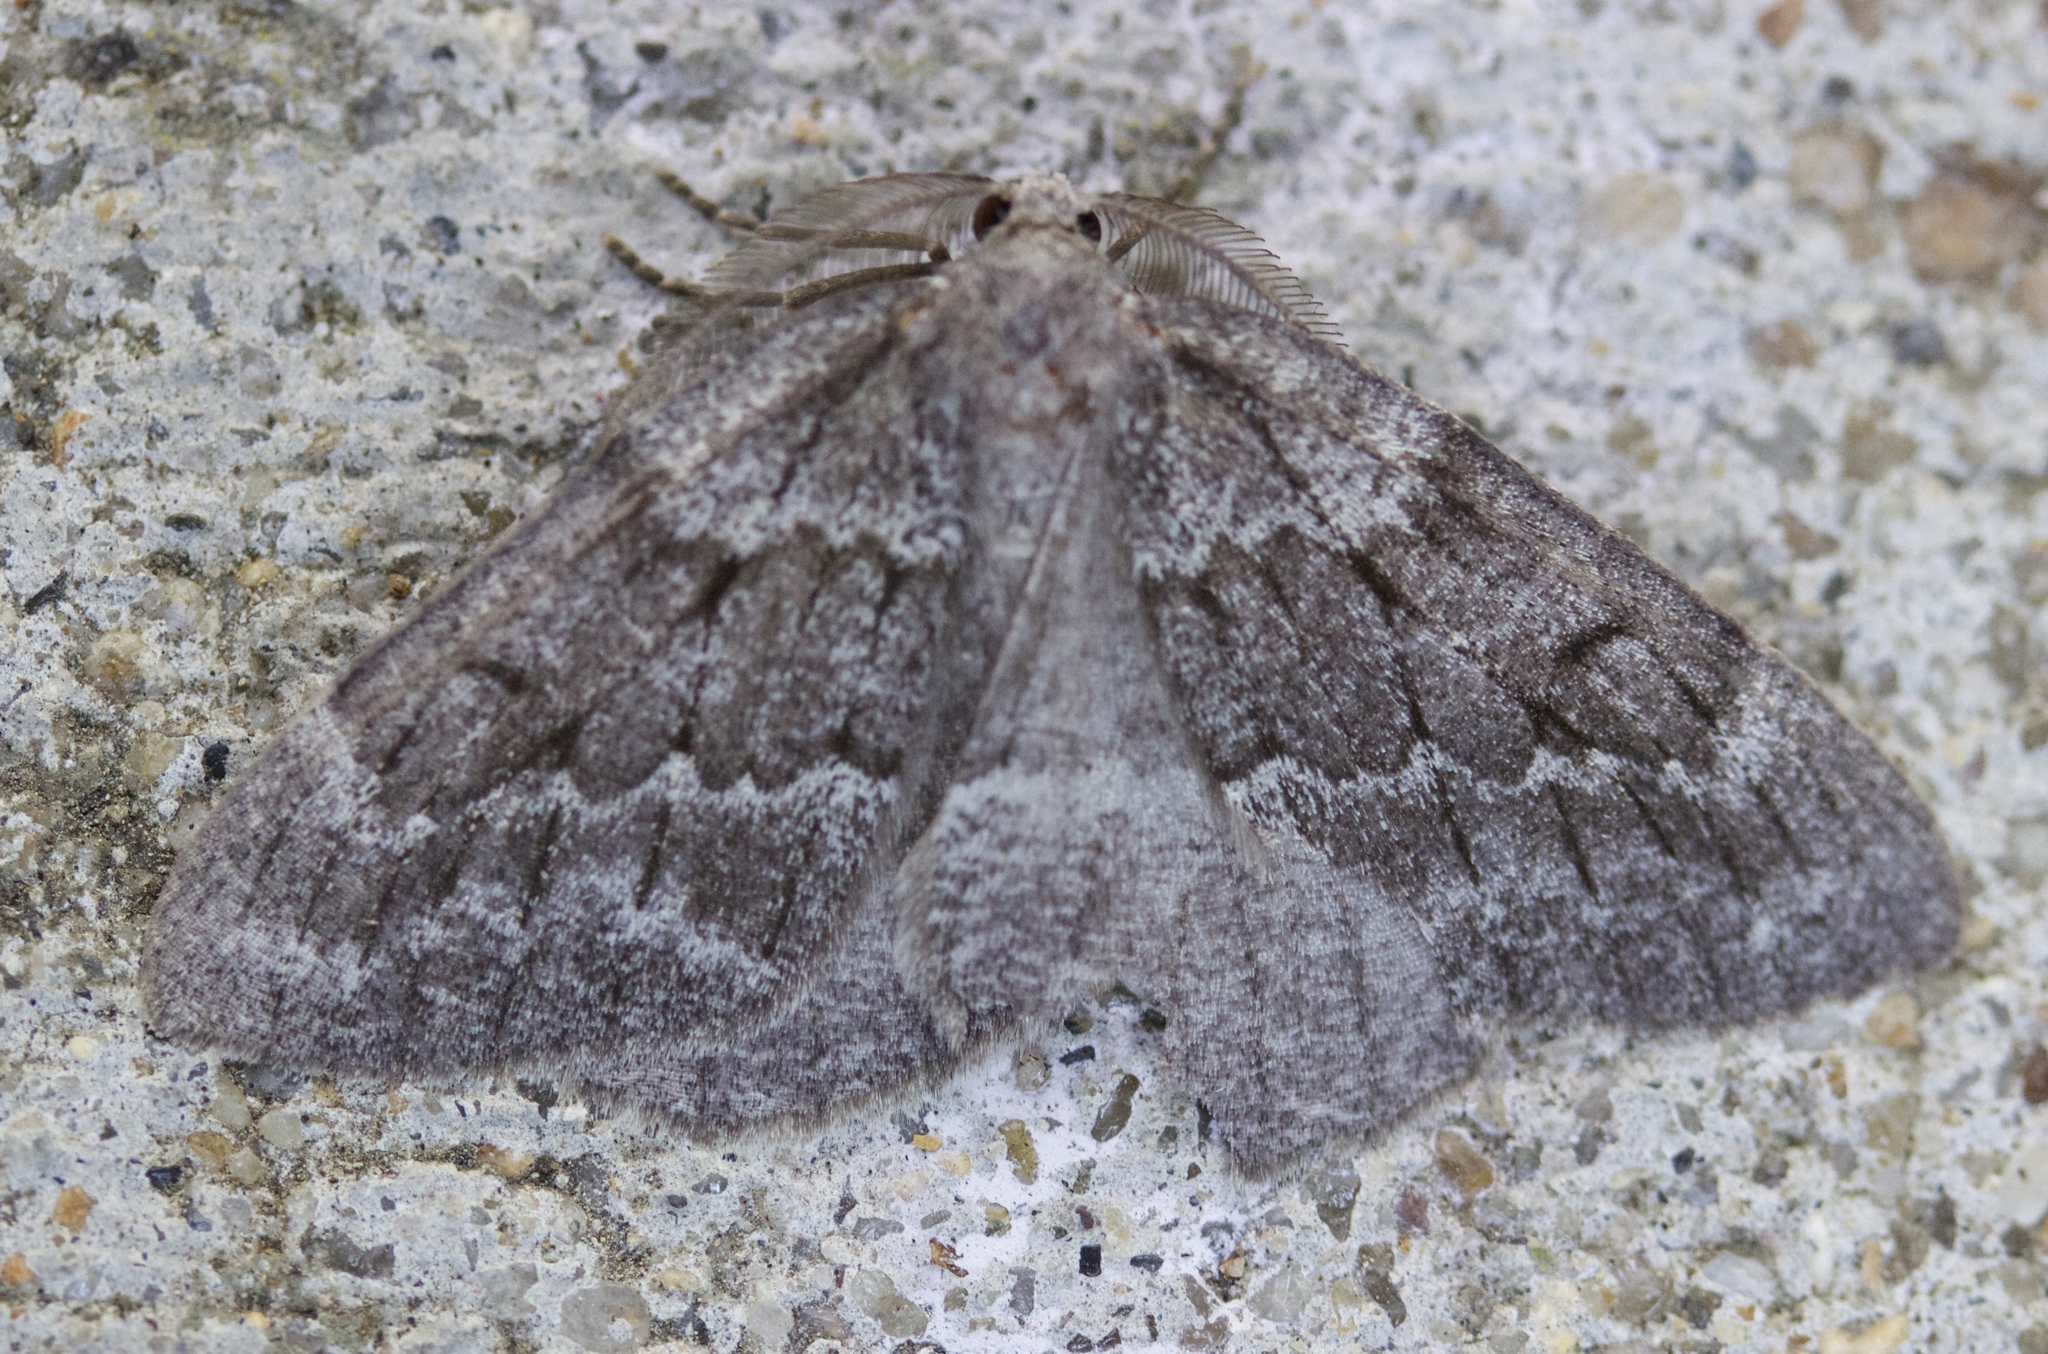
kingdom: Animalia
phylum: Arthropoda
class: Insecta
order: Lepidoptera
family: Geometridae
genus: Nepytia
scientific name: Nepytia lagunata
